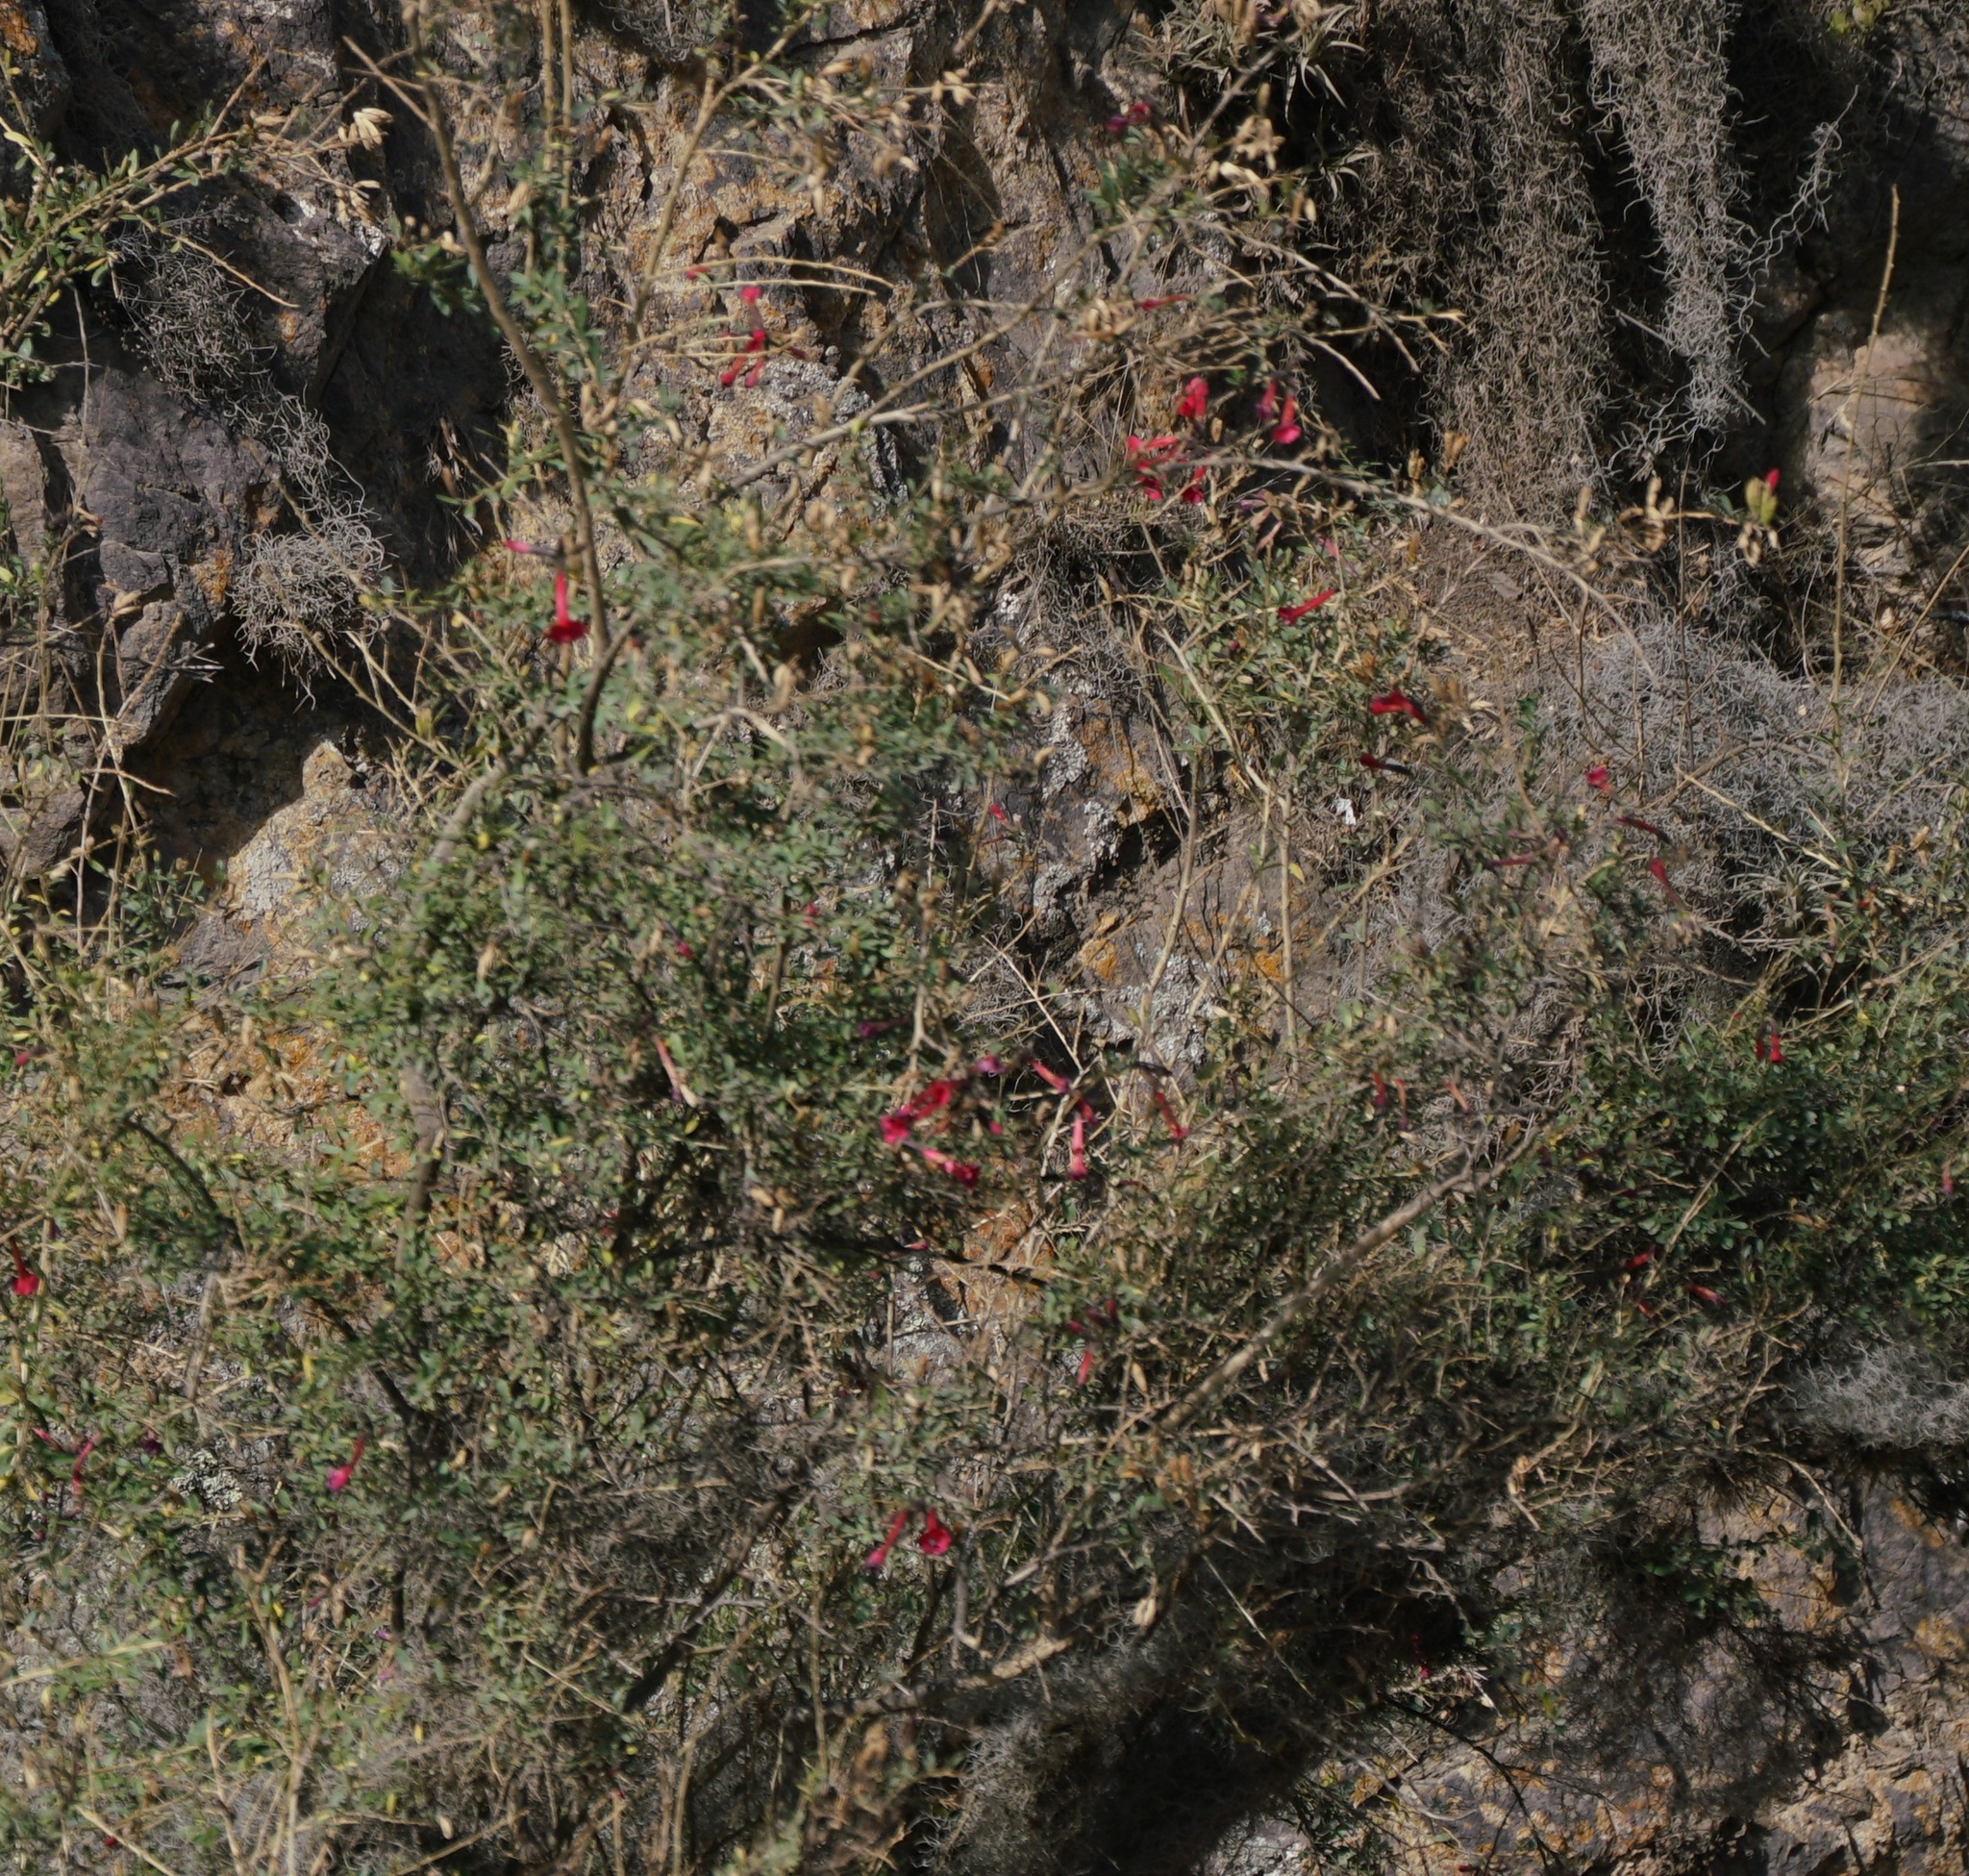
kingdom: Plantae
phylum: Tracheophyta
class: Magnoliopsida
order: Ericales
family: Polemoniaceae
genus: Cantua
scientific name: Cantua buxifolia
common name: Sacred-flower-of-the-incas
